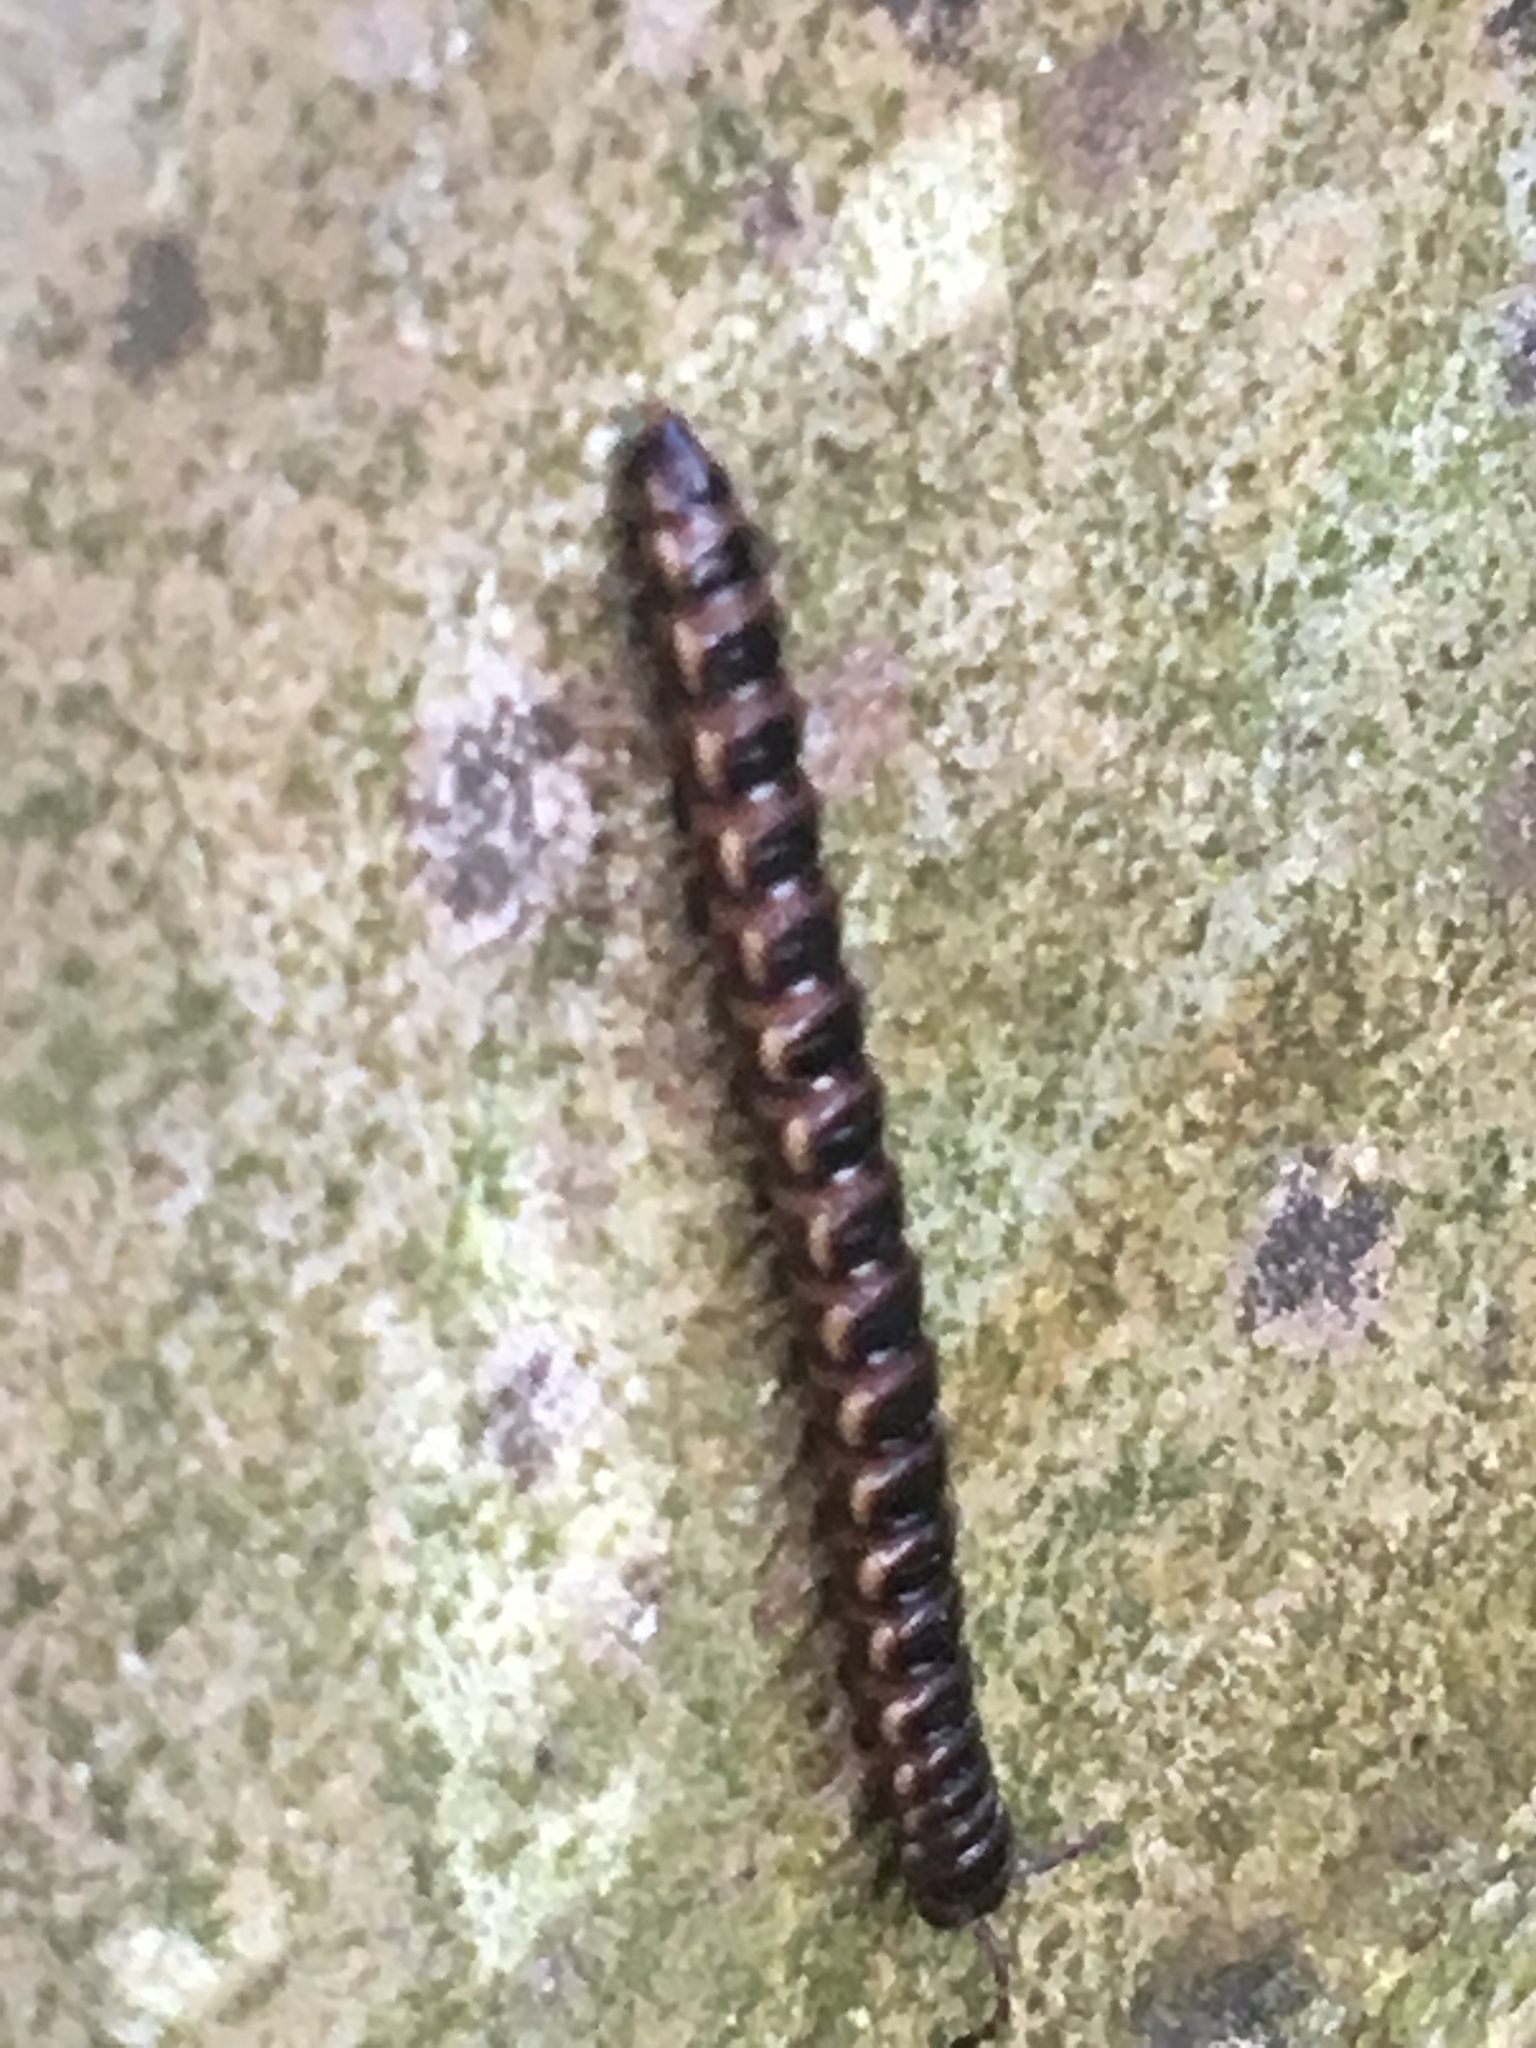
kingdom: Animalia
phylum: Arthropoda
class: Diplopoda
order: Polydesmida
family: Paradoxosomatidae
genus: Oxidus
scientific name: Oxidus gracilis
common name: Greenhouse millipede
